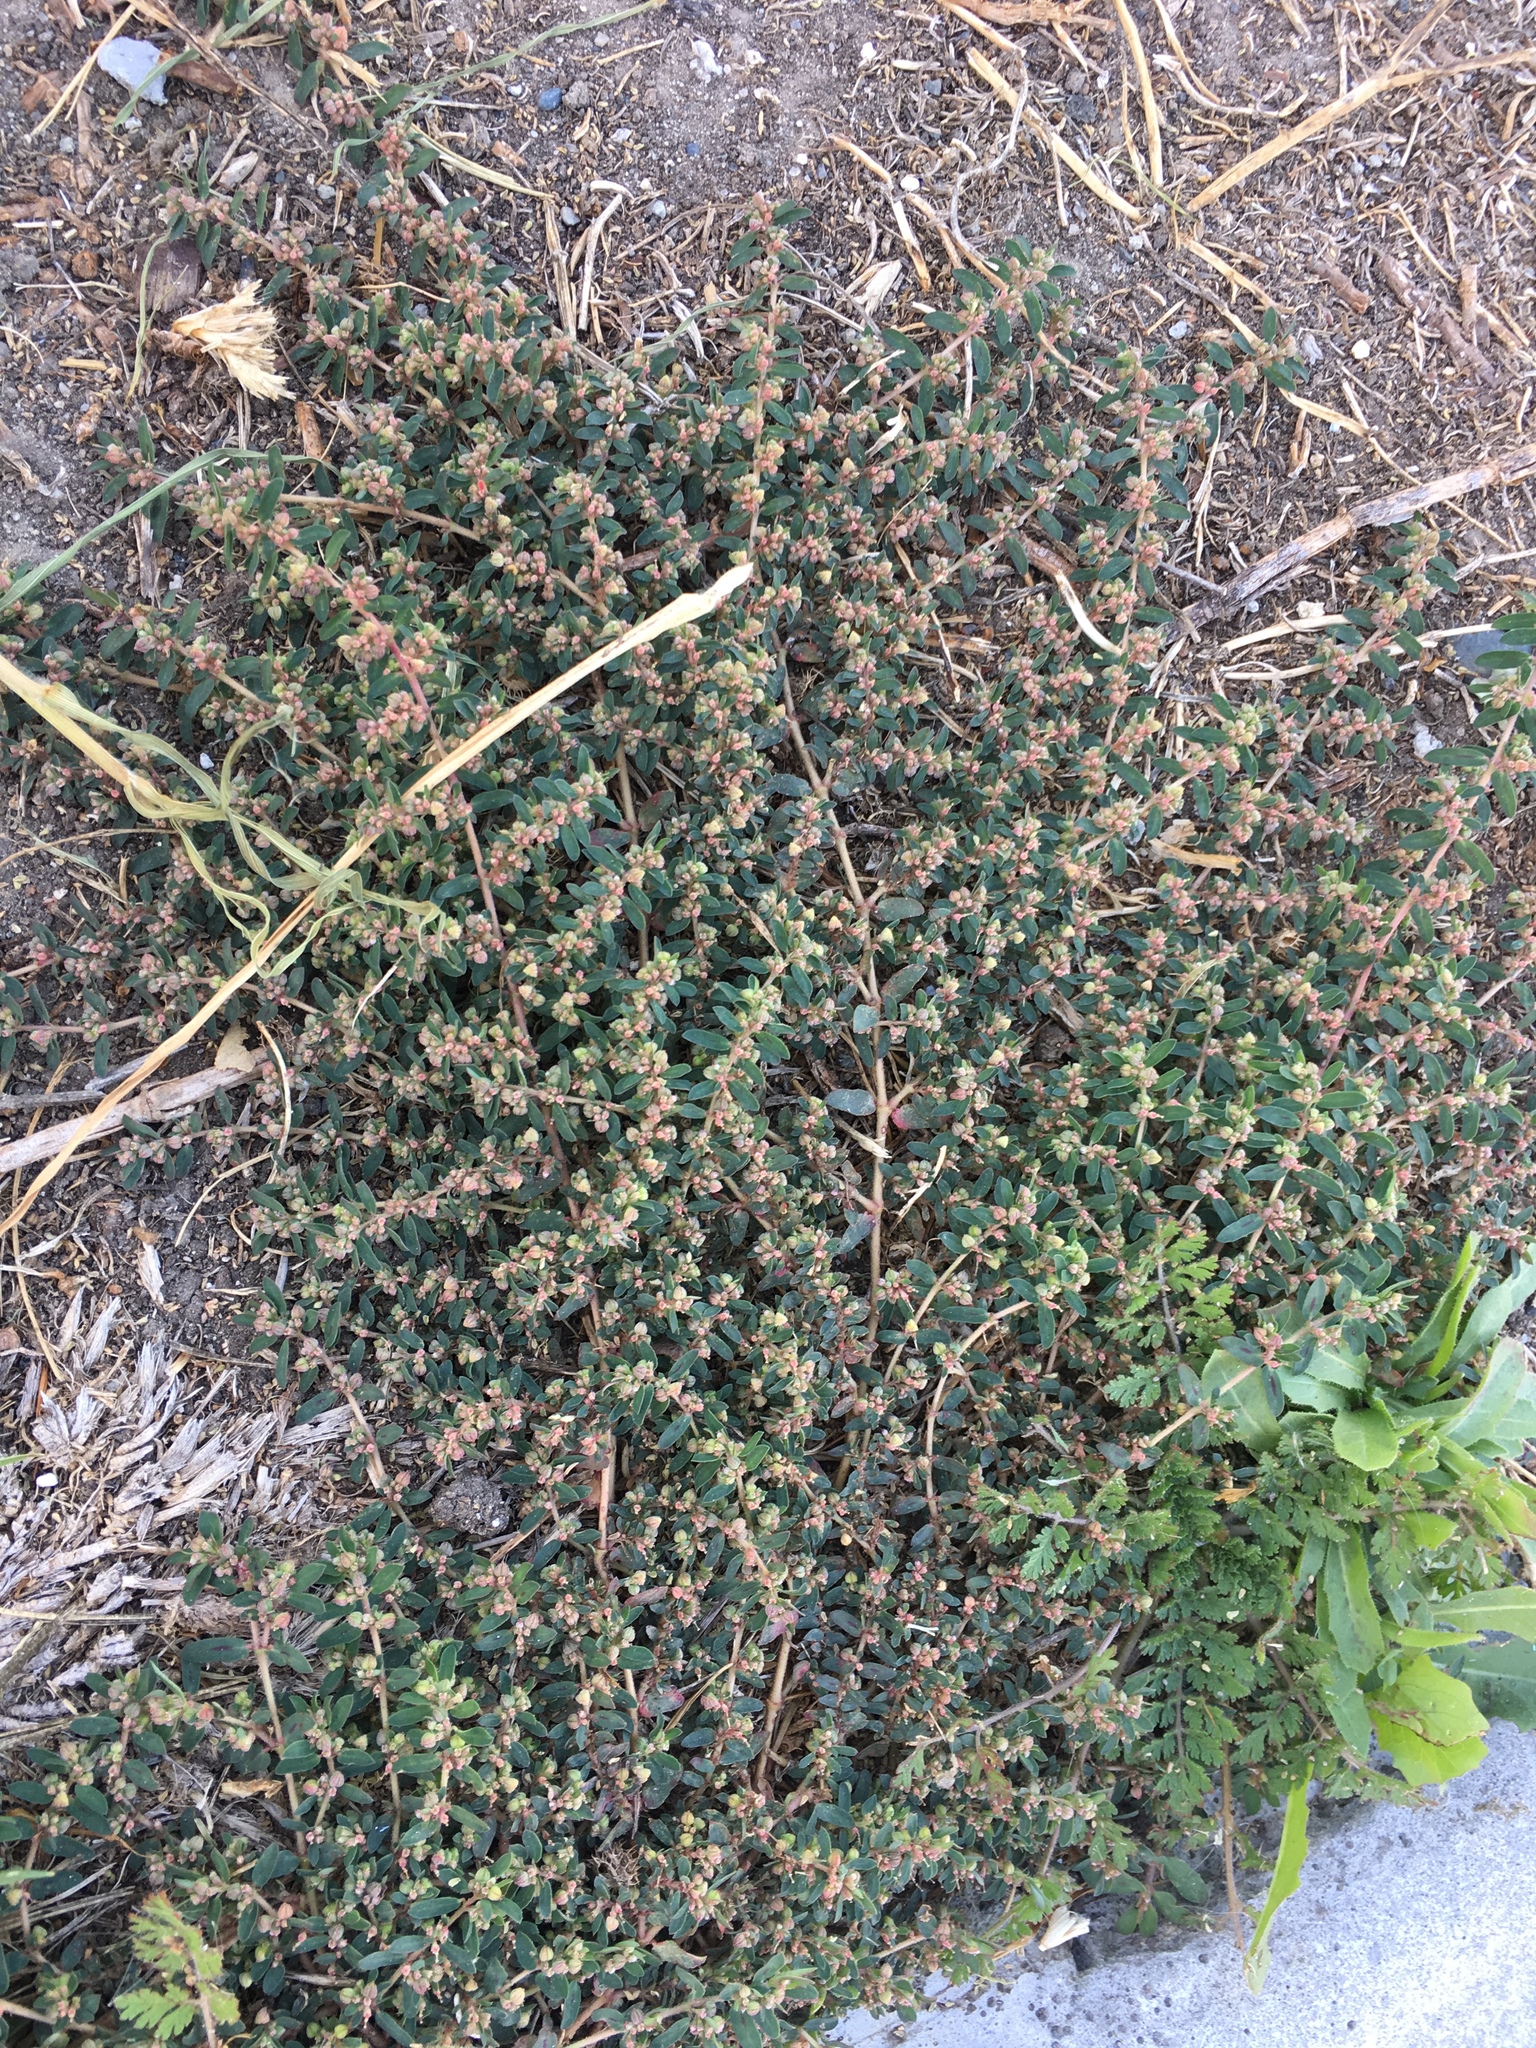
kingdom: Plantae
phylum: Tracheophyta
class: Magnoliopsida
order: Malpighiales
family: Euphorbiaceae
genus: Euphorbia
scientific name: Euphorbia maculata
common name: Spotted spurge
